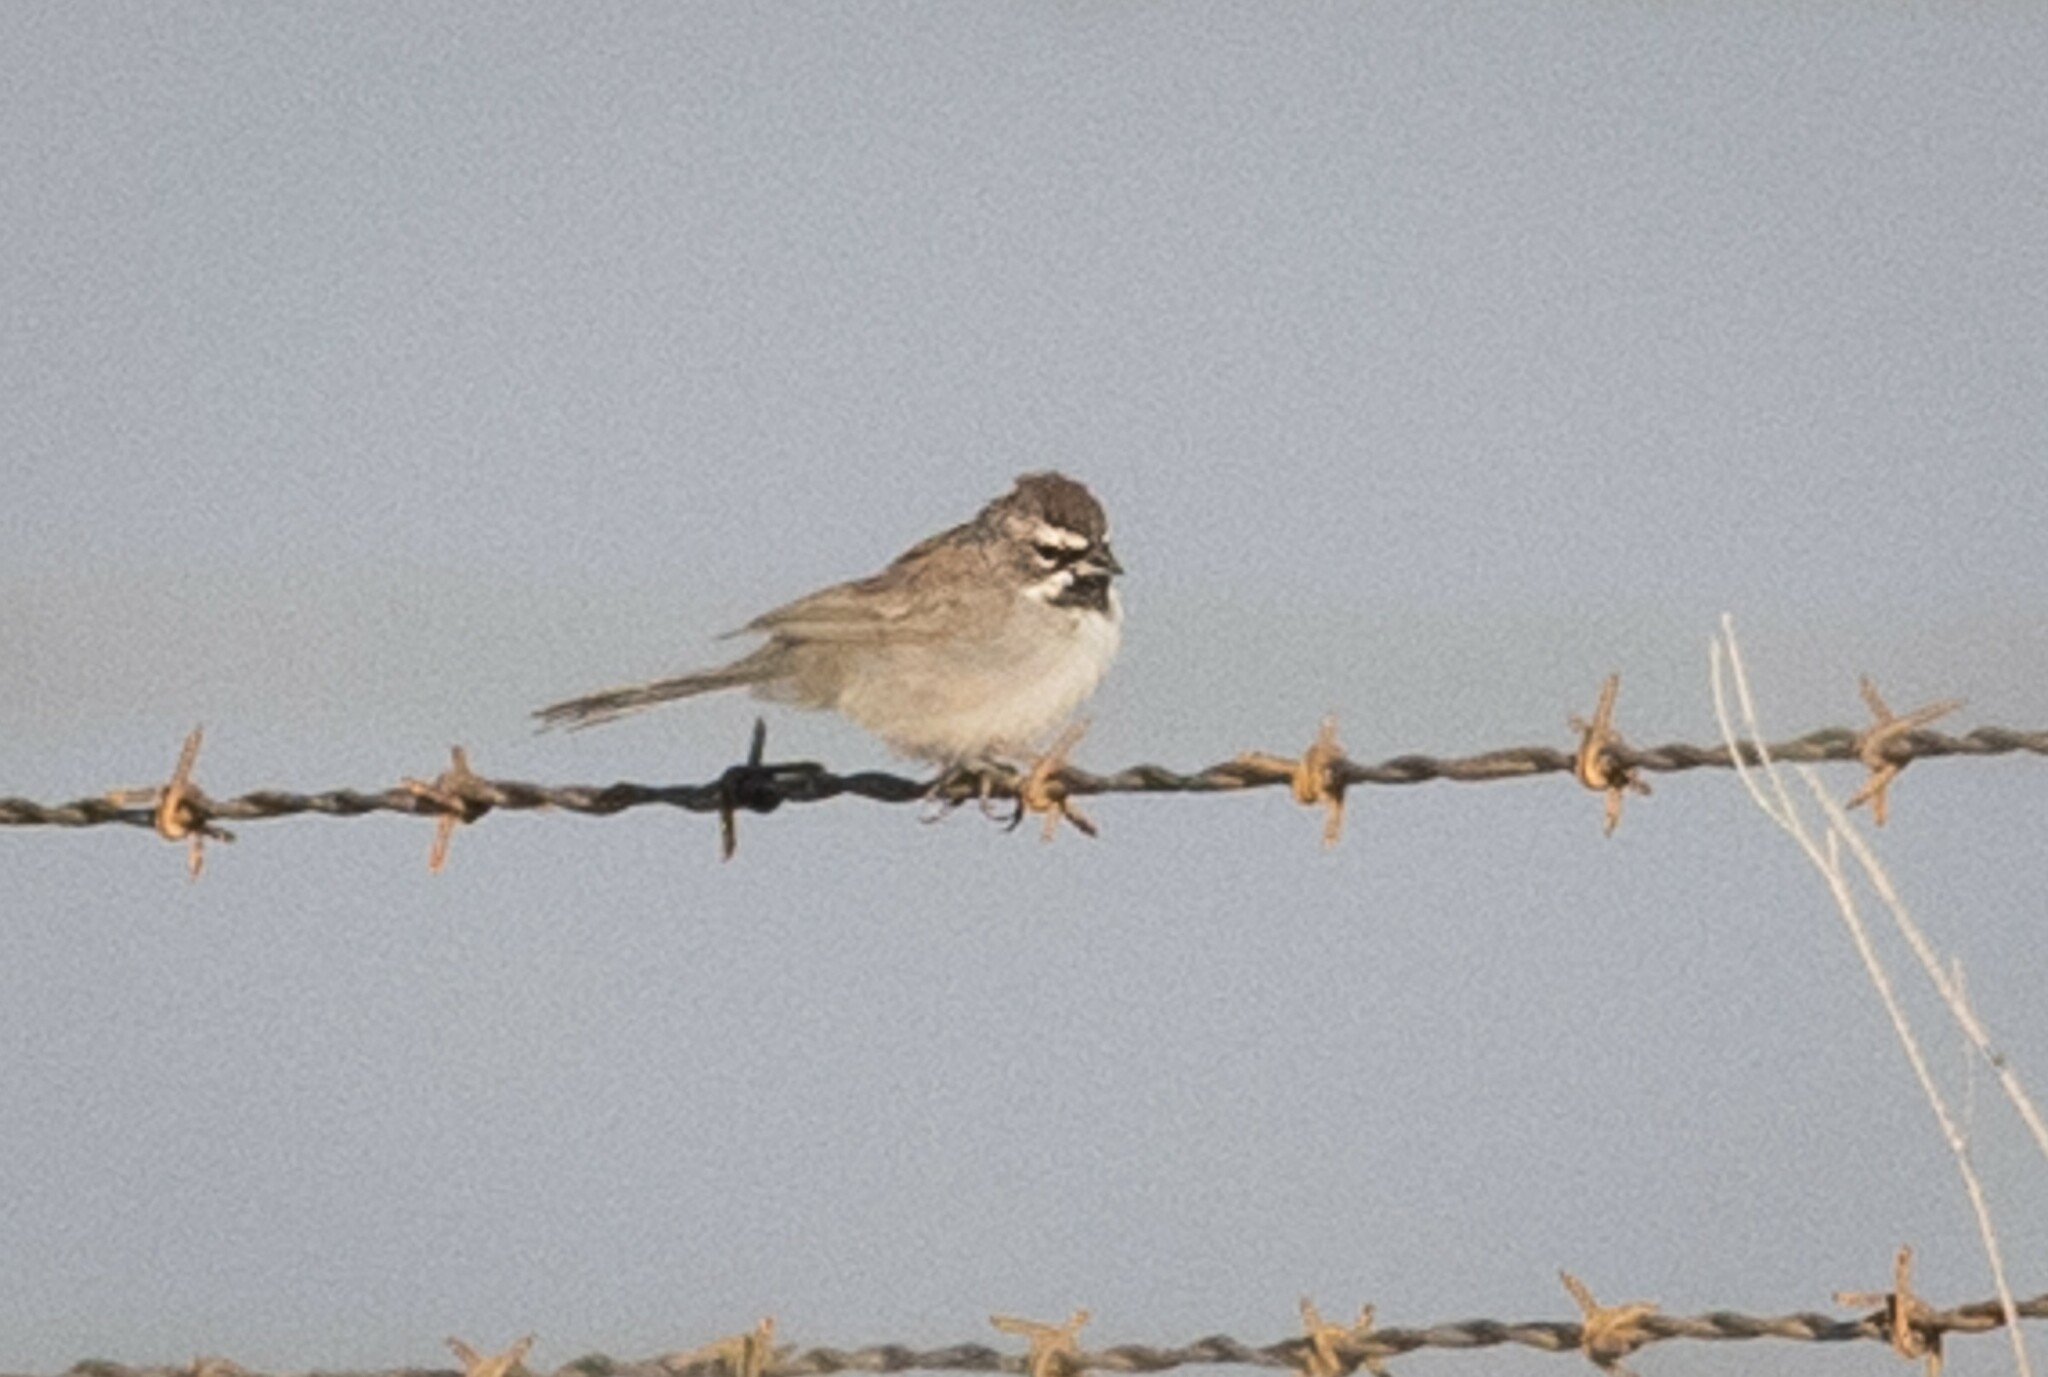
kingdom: Animalia
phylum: Chordata
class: Aves
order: Passeriformes
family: Passerellidae
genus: Amphispiza
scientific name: Amphispiza bilineata
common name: Black-throated sparrow
